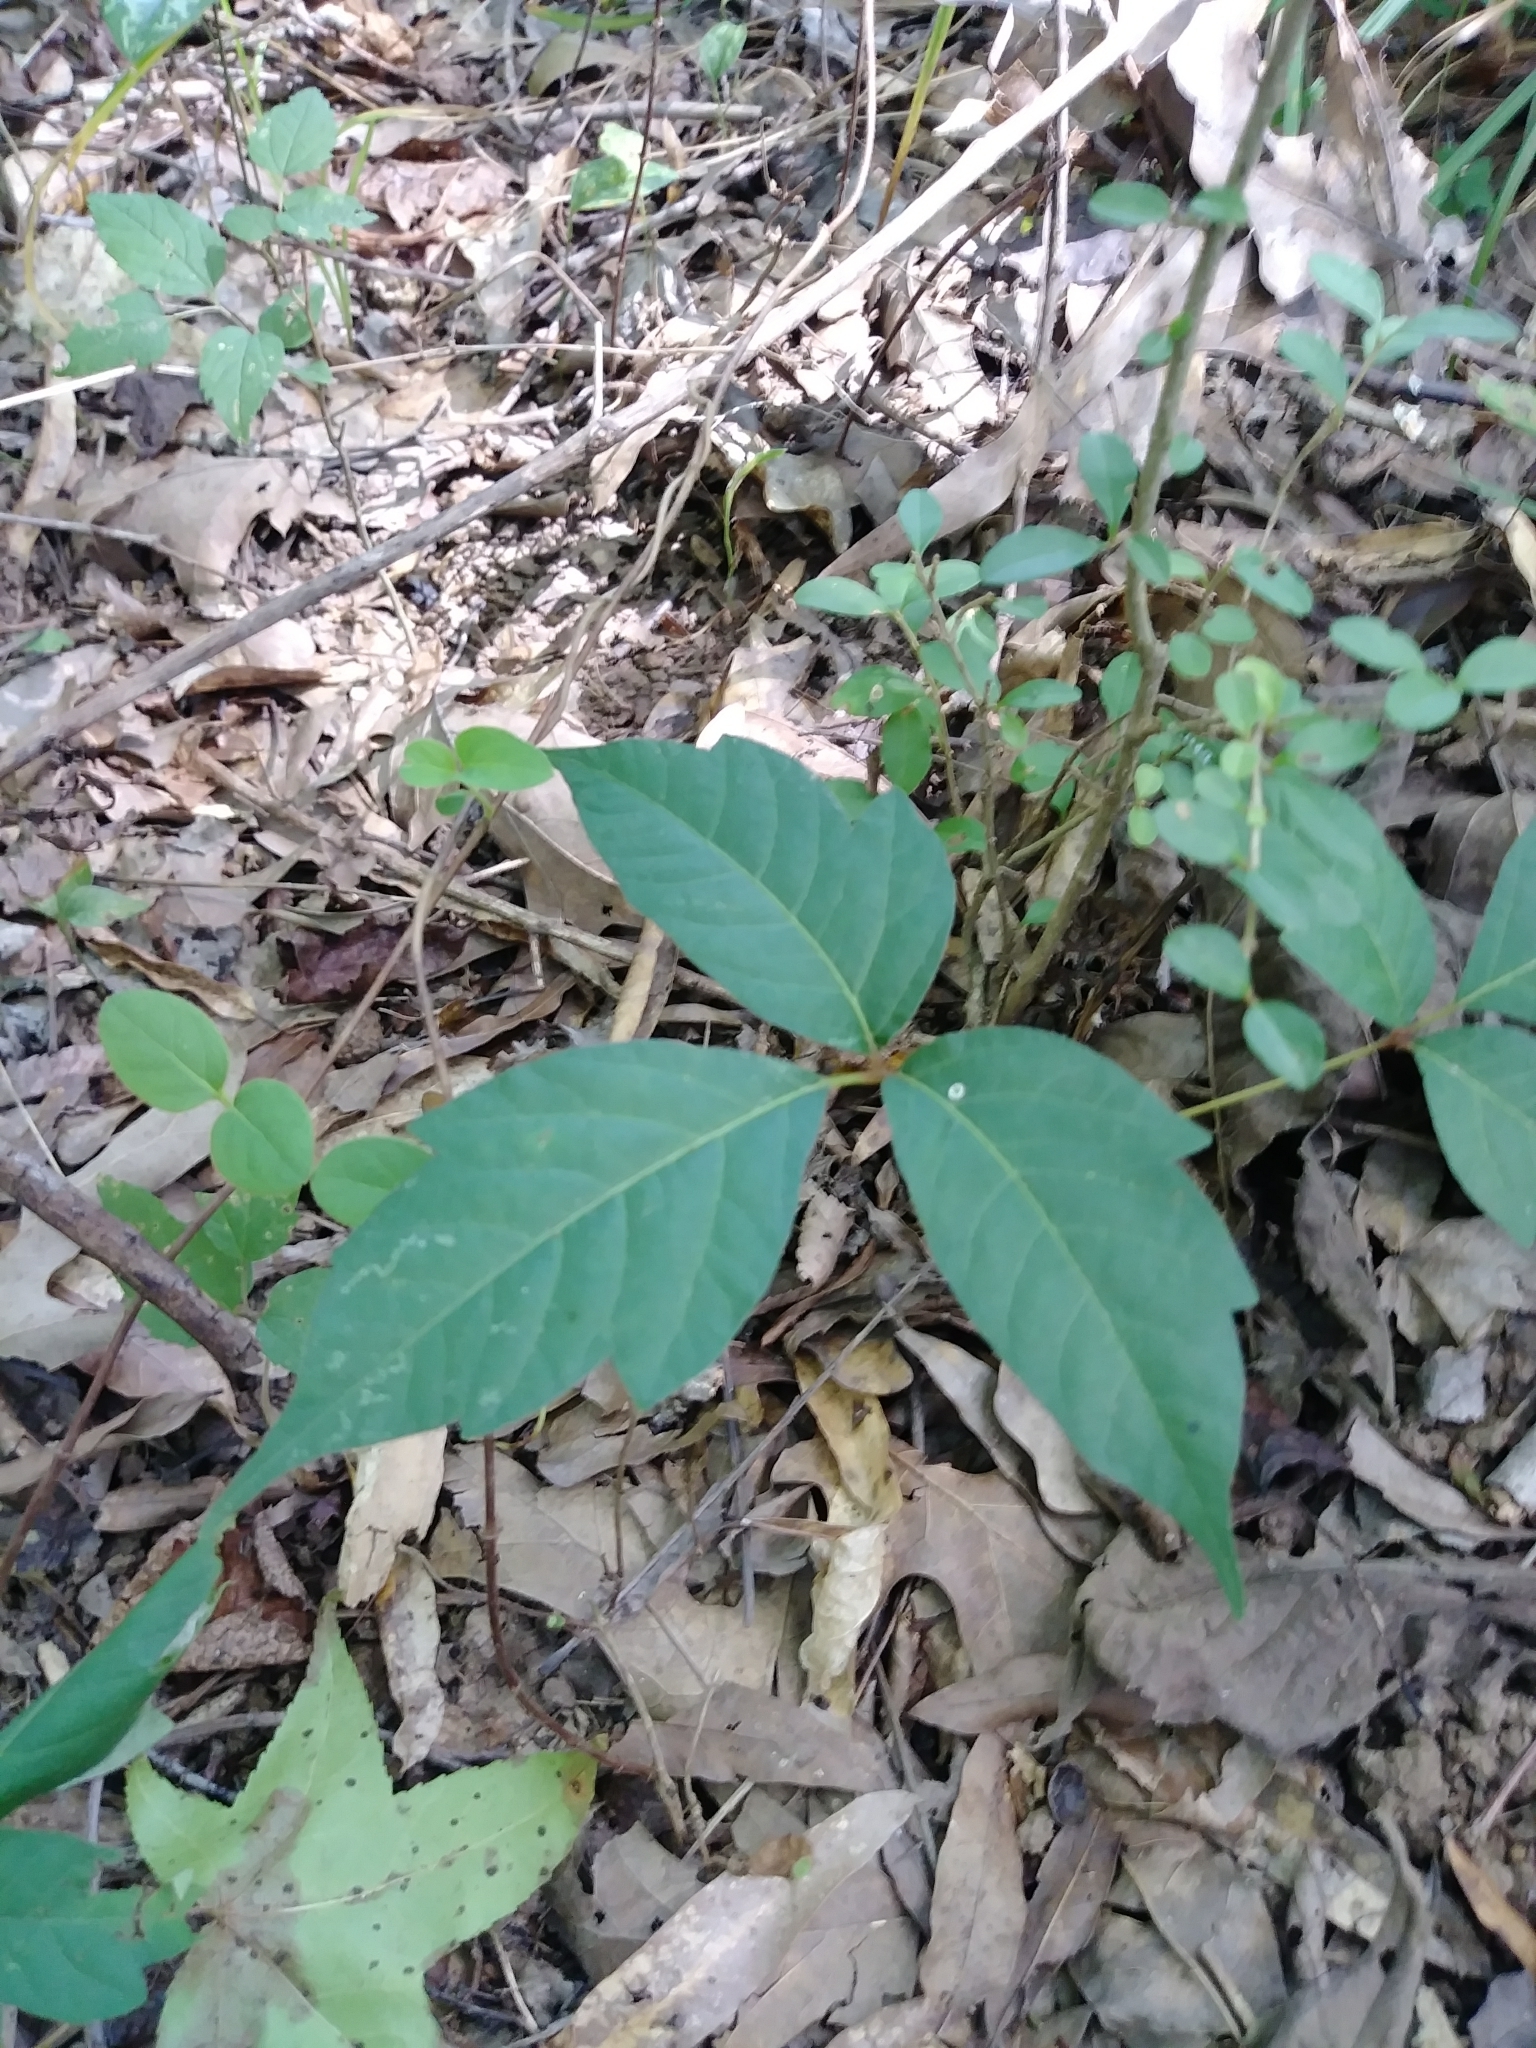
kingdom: Plantae
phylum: Tracheophyta
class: Magnoliopsida
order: Sapindales
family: Anacardiaceae
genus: Toxicodendron
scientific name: Toxicodendron radicans
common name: Poison ivy
